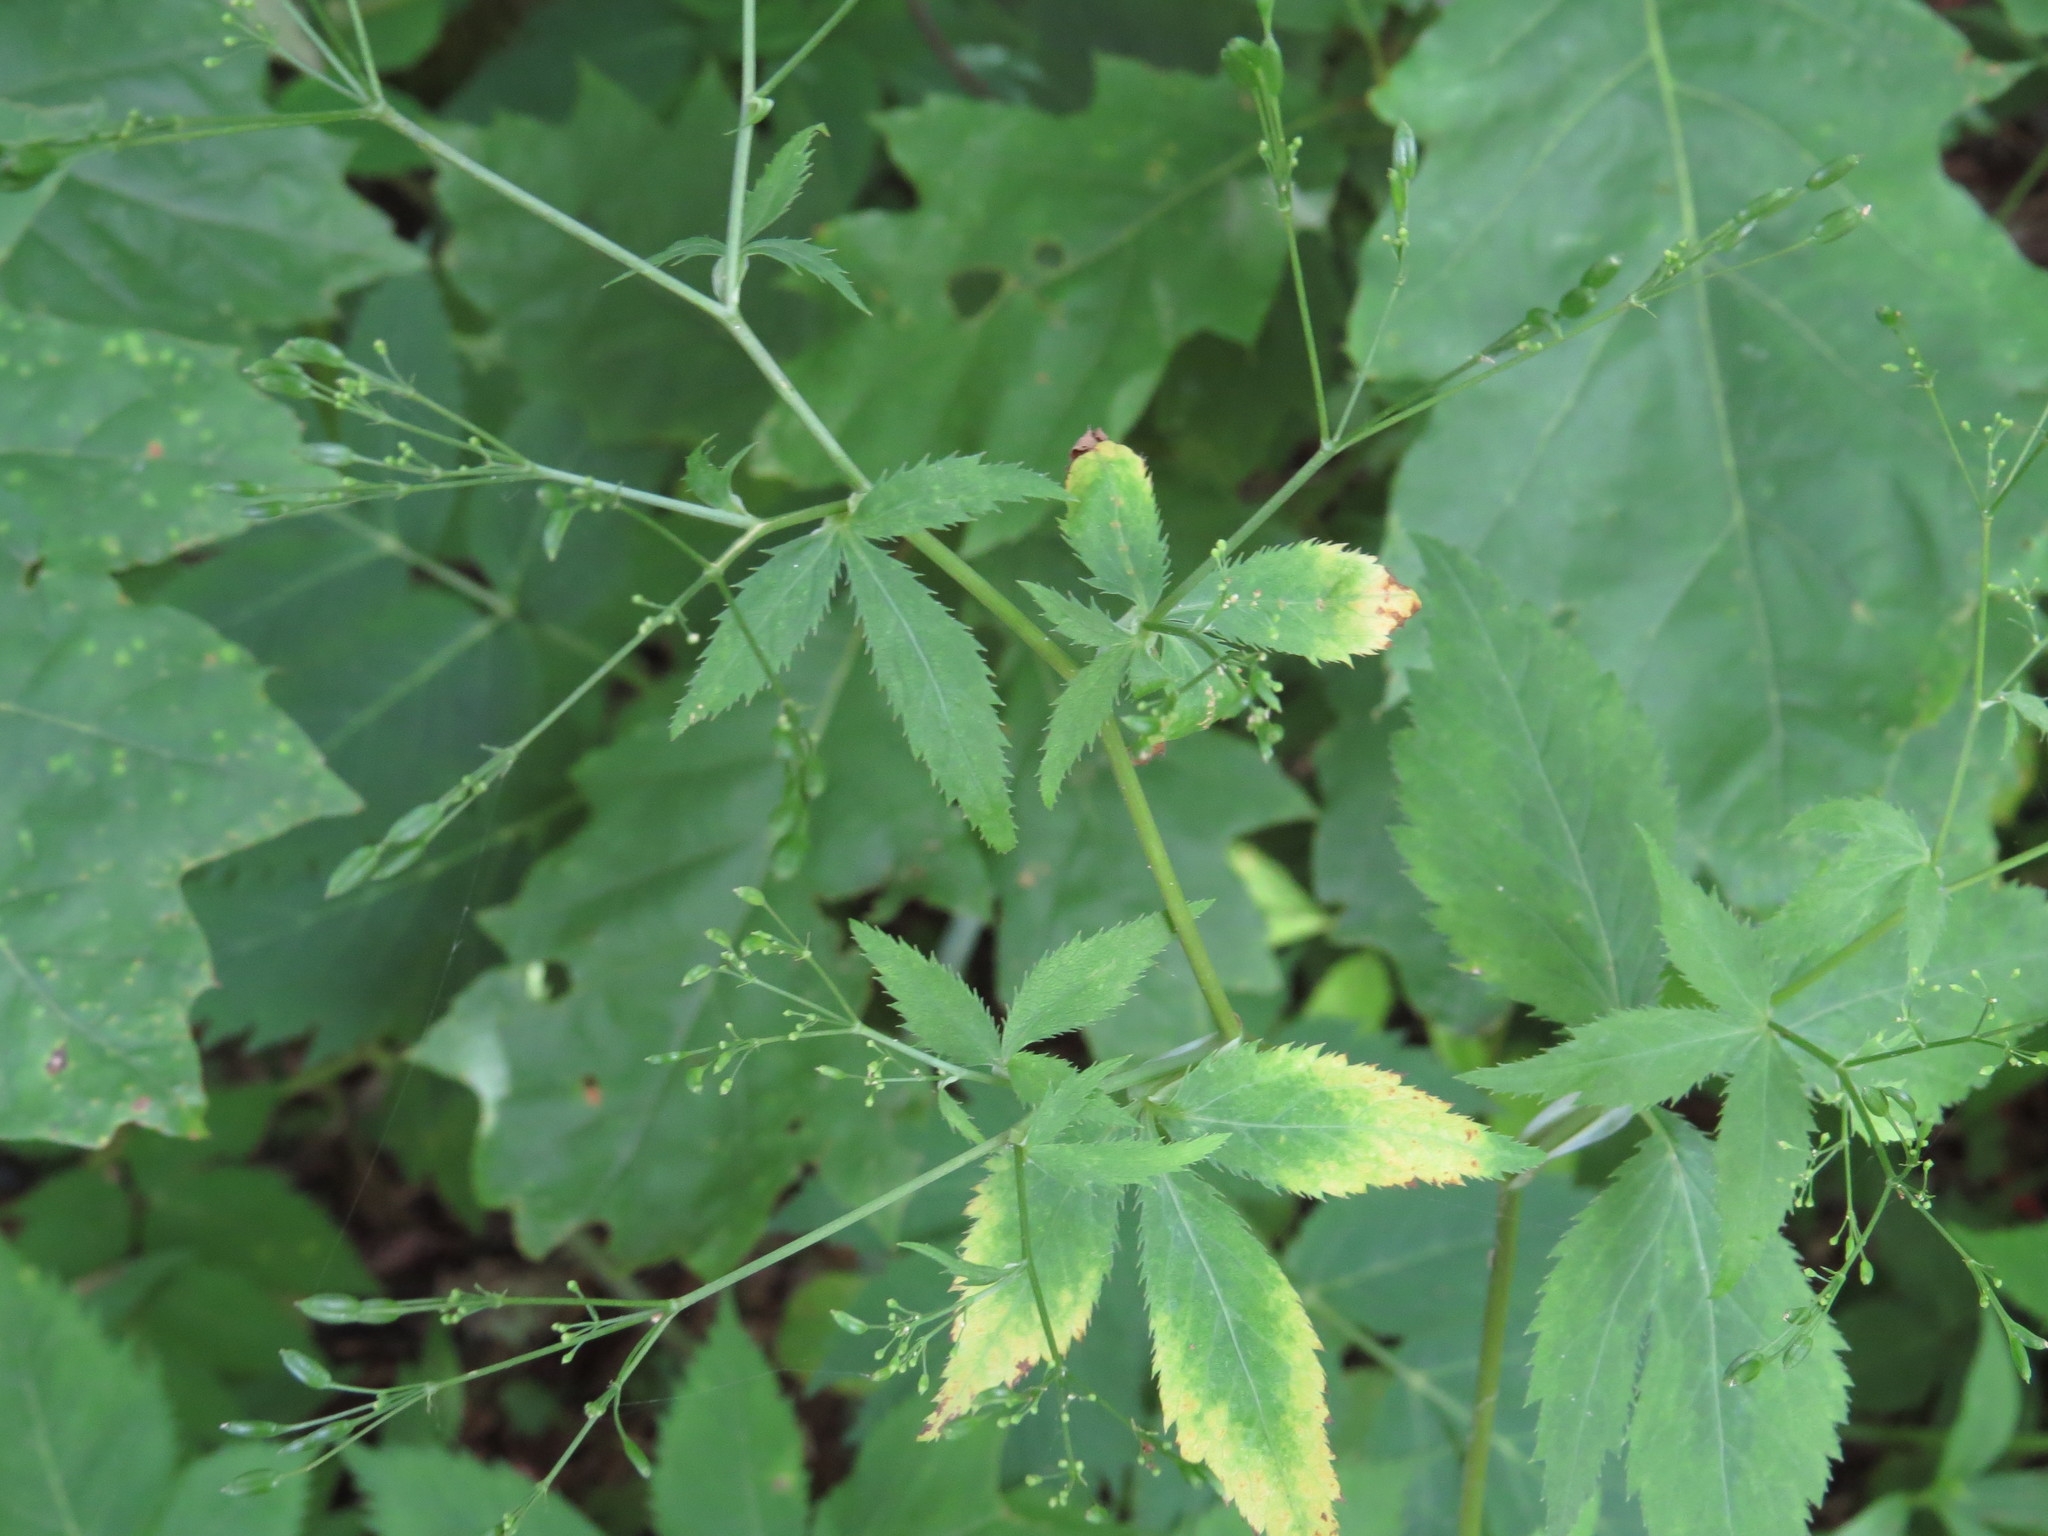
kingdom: Plantae
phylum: Tracheophyta
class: Magnoliopsida
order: Apiales
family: Apiaceae
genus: Cryptotaenia
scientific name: Cryptotaenia canadensis
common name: Honewort
